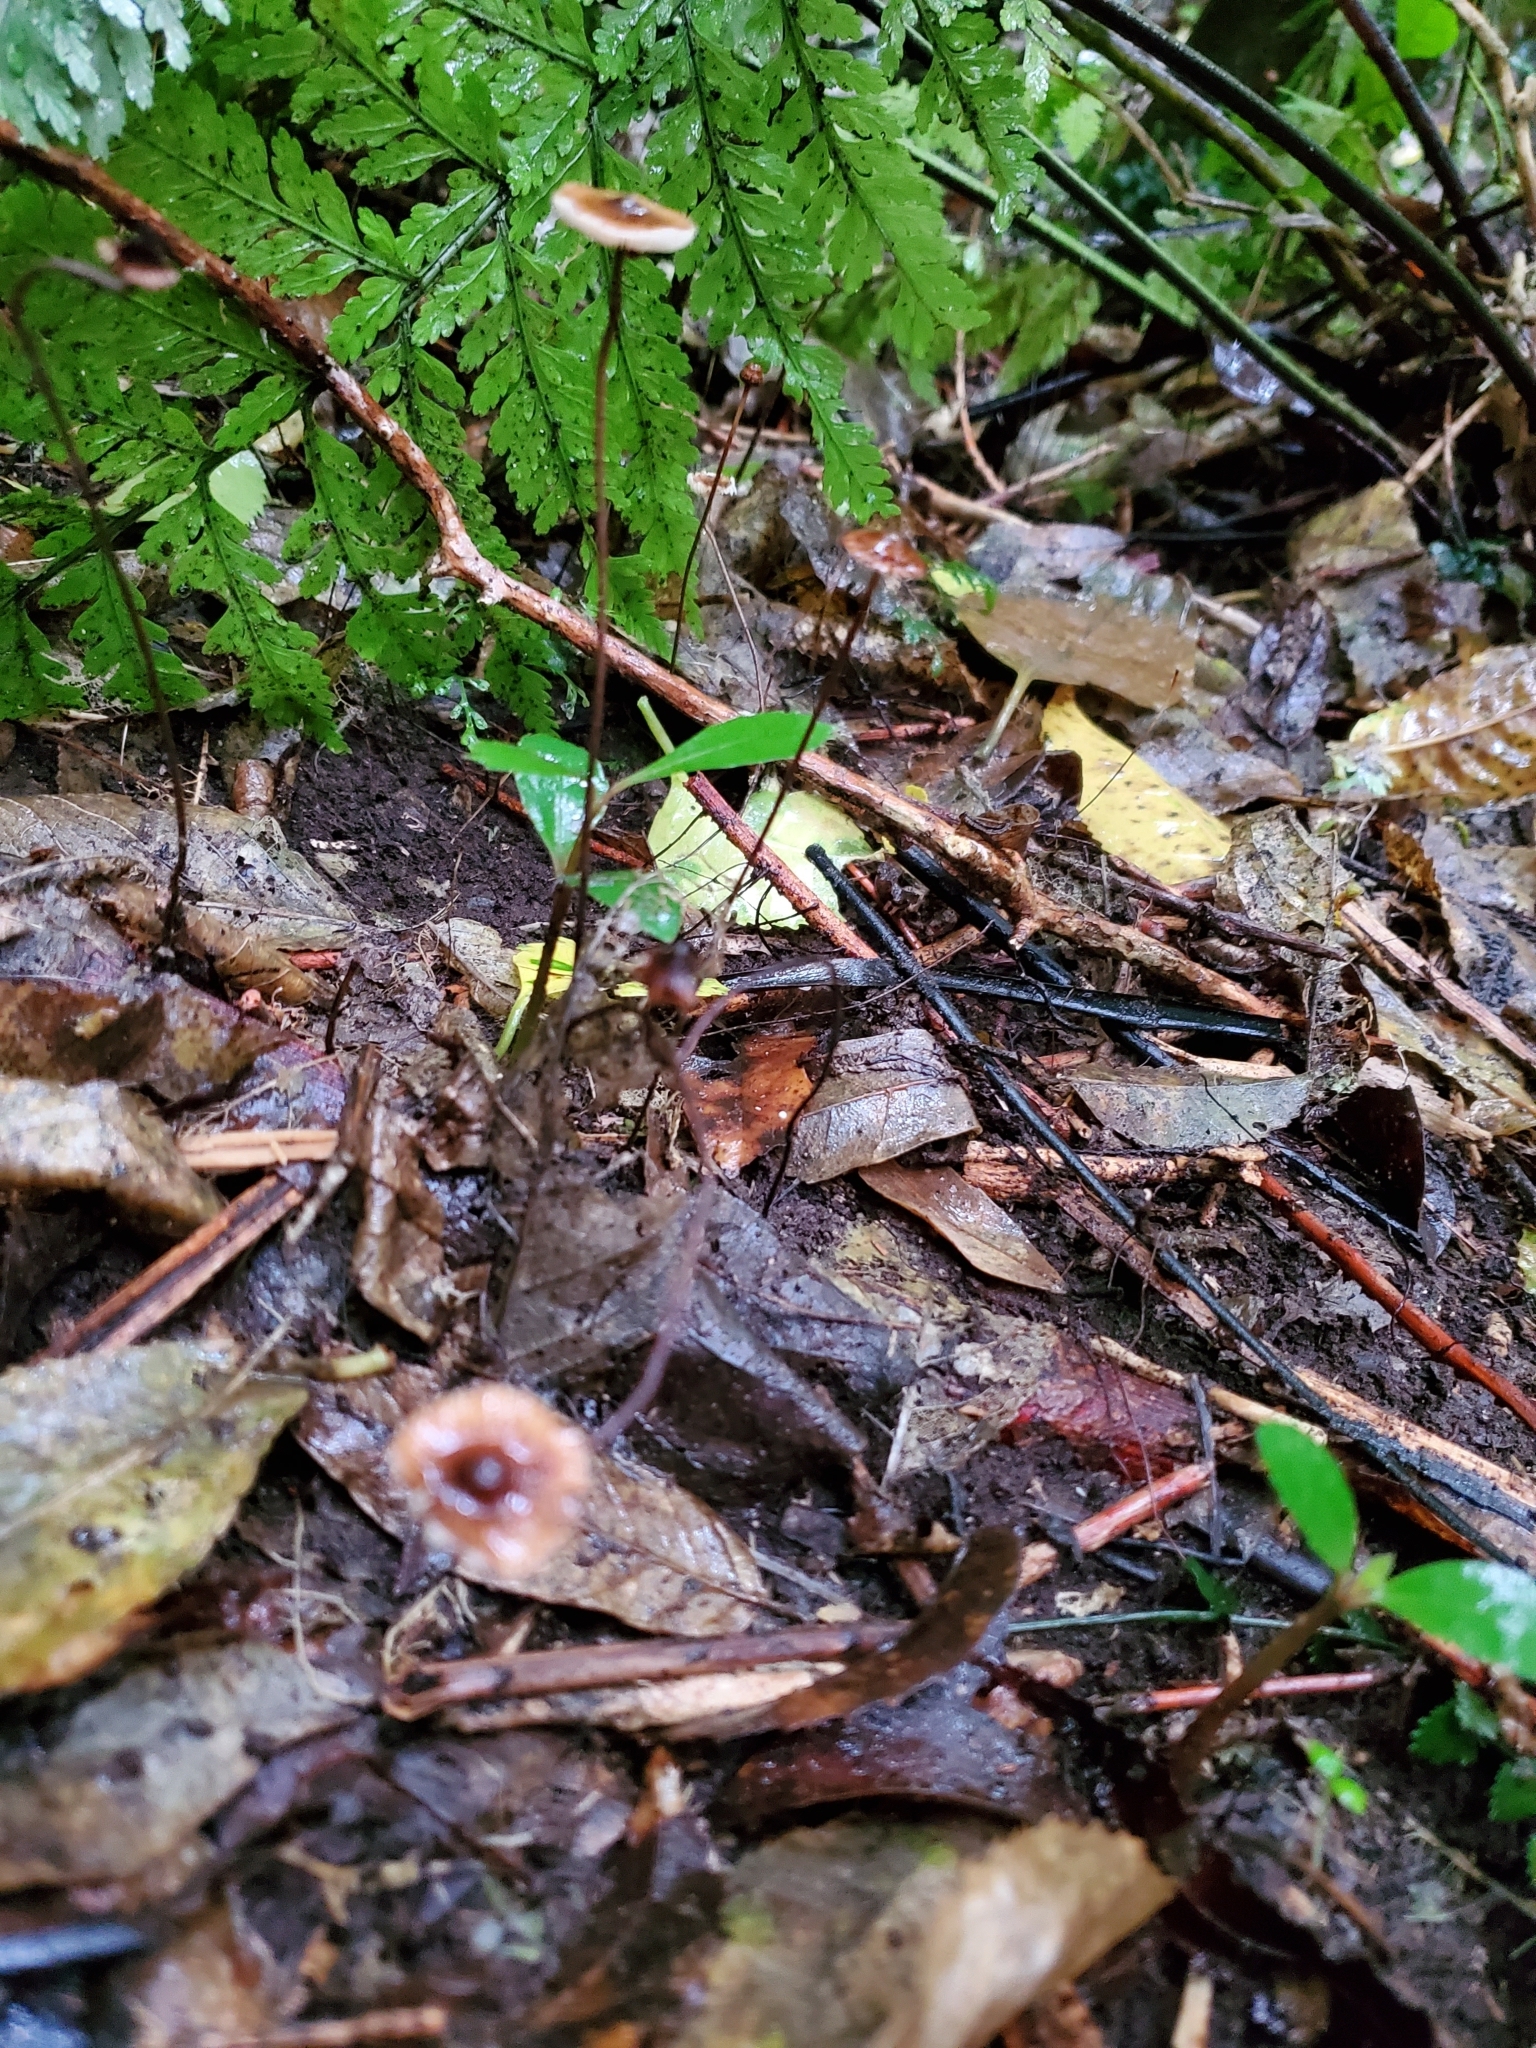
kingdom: Fungi
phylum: Basidiomycota
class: Agaricomycetes
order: Agaricales
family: Marasmiaceae
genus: Crinipellis
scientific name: Crinipellis procera
